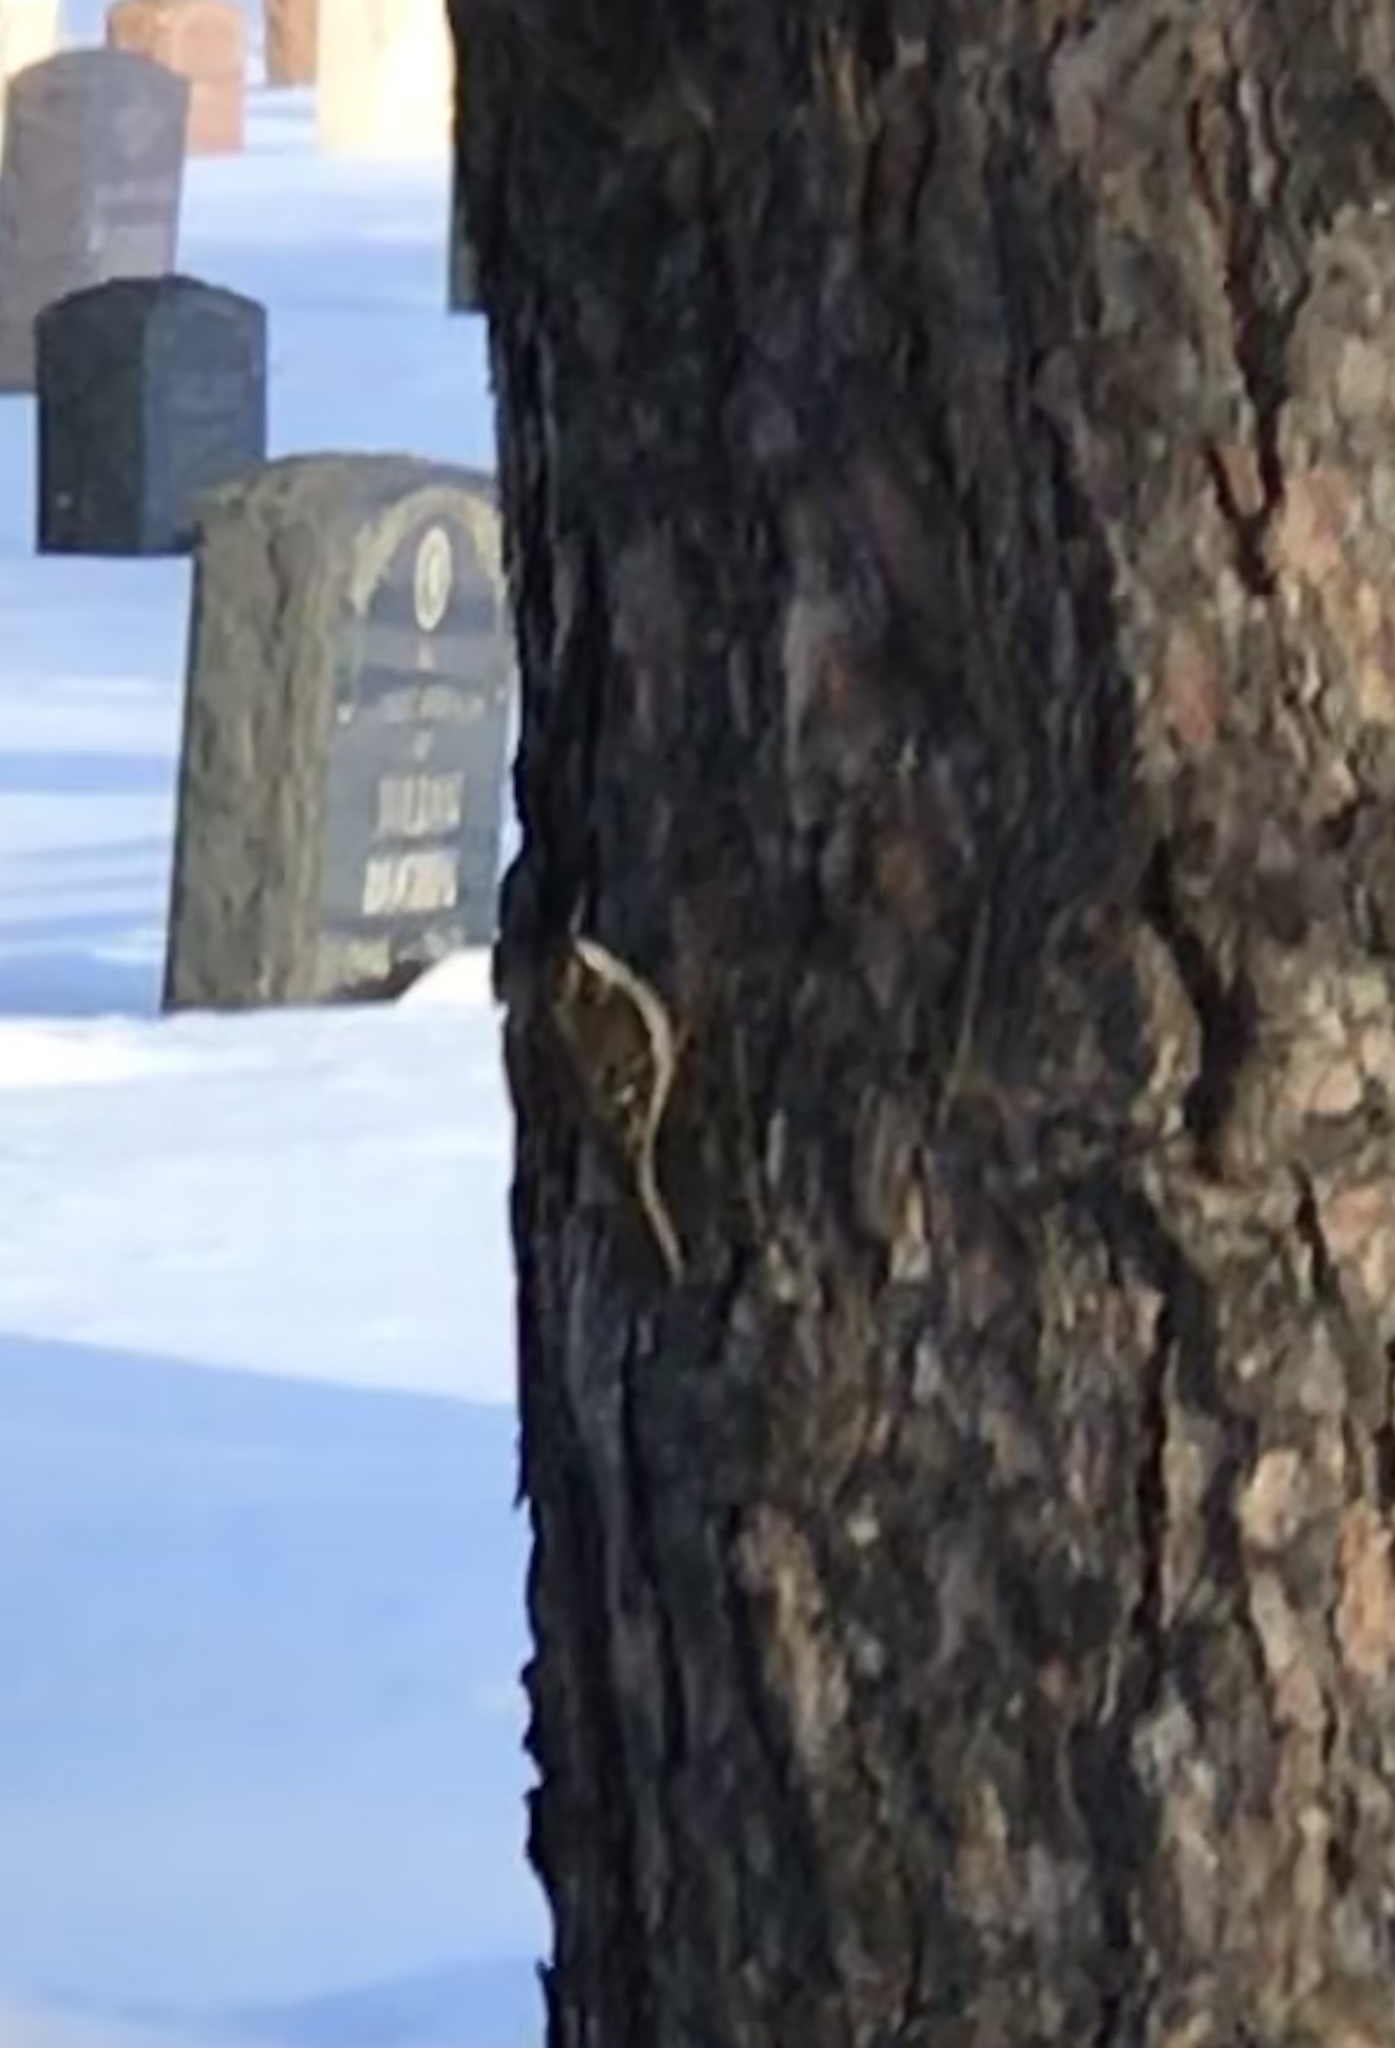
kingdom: Animalia
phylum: Chordata
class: Aves
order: Passeriformes
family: Certhiidae
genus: Certhia
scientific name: Certhia americana
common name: Brown creeper
